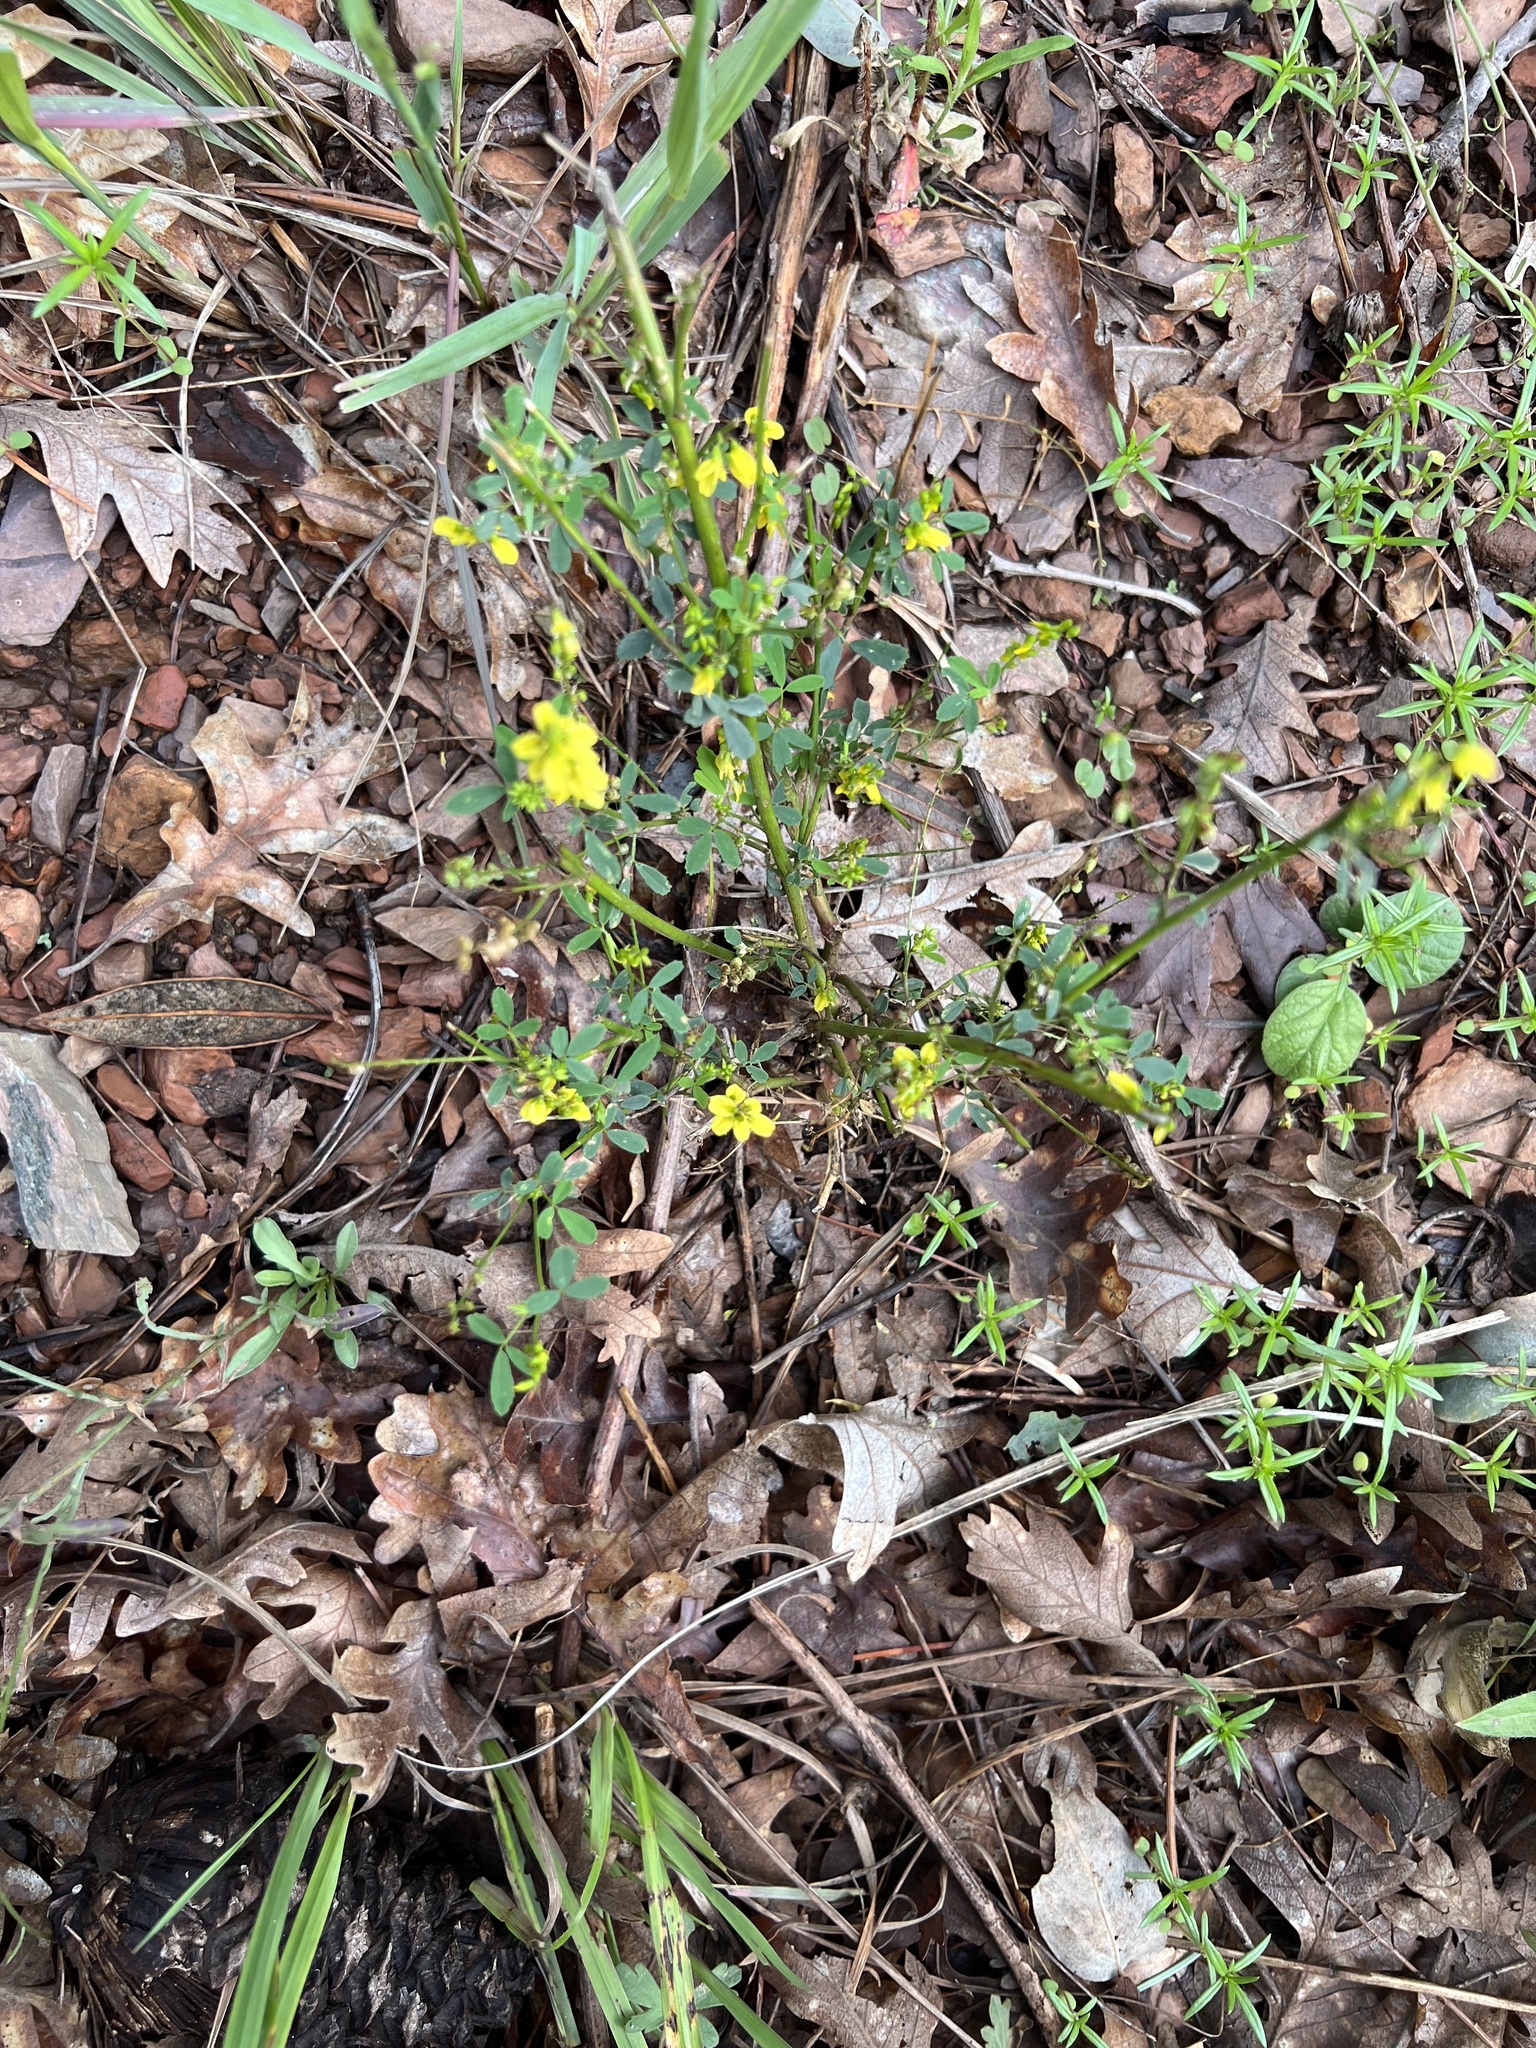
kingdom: Plantae
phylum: Tracheophyta
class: Magnoliopsida
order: Fabales
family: Fabaceae
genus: Melilotus
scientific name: Melilotus officinalis
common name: Sweetclover
